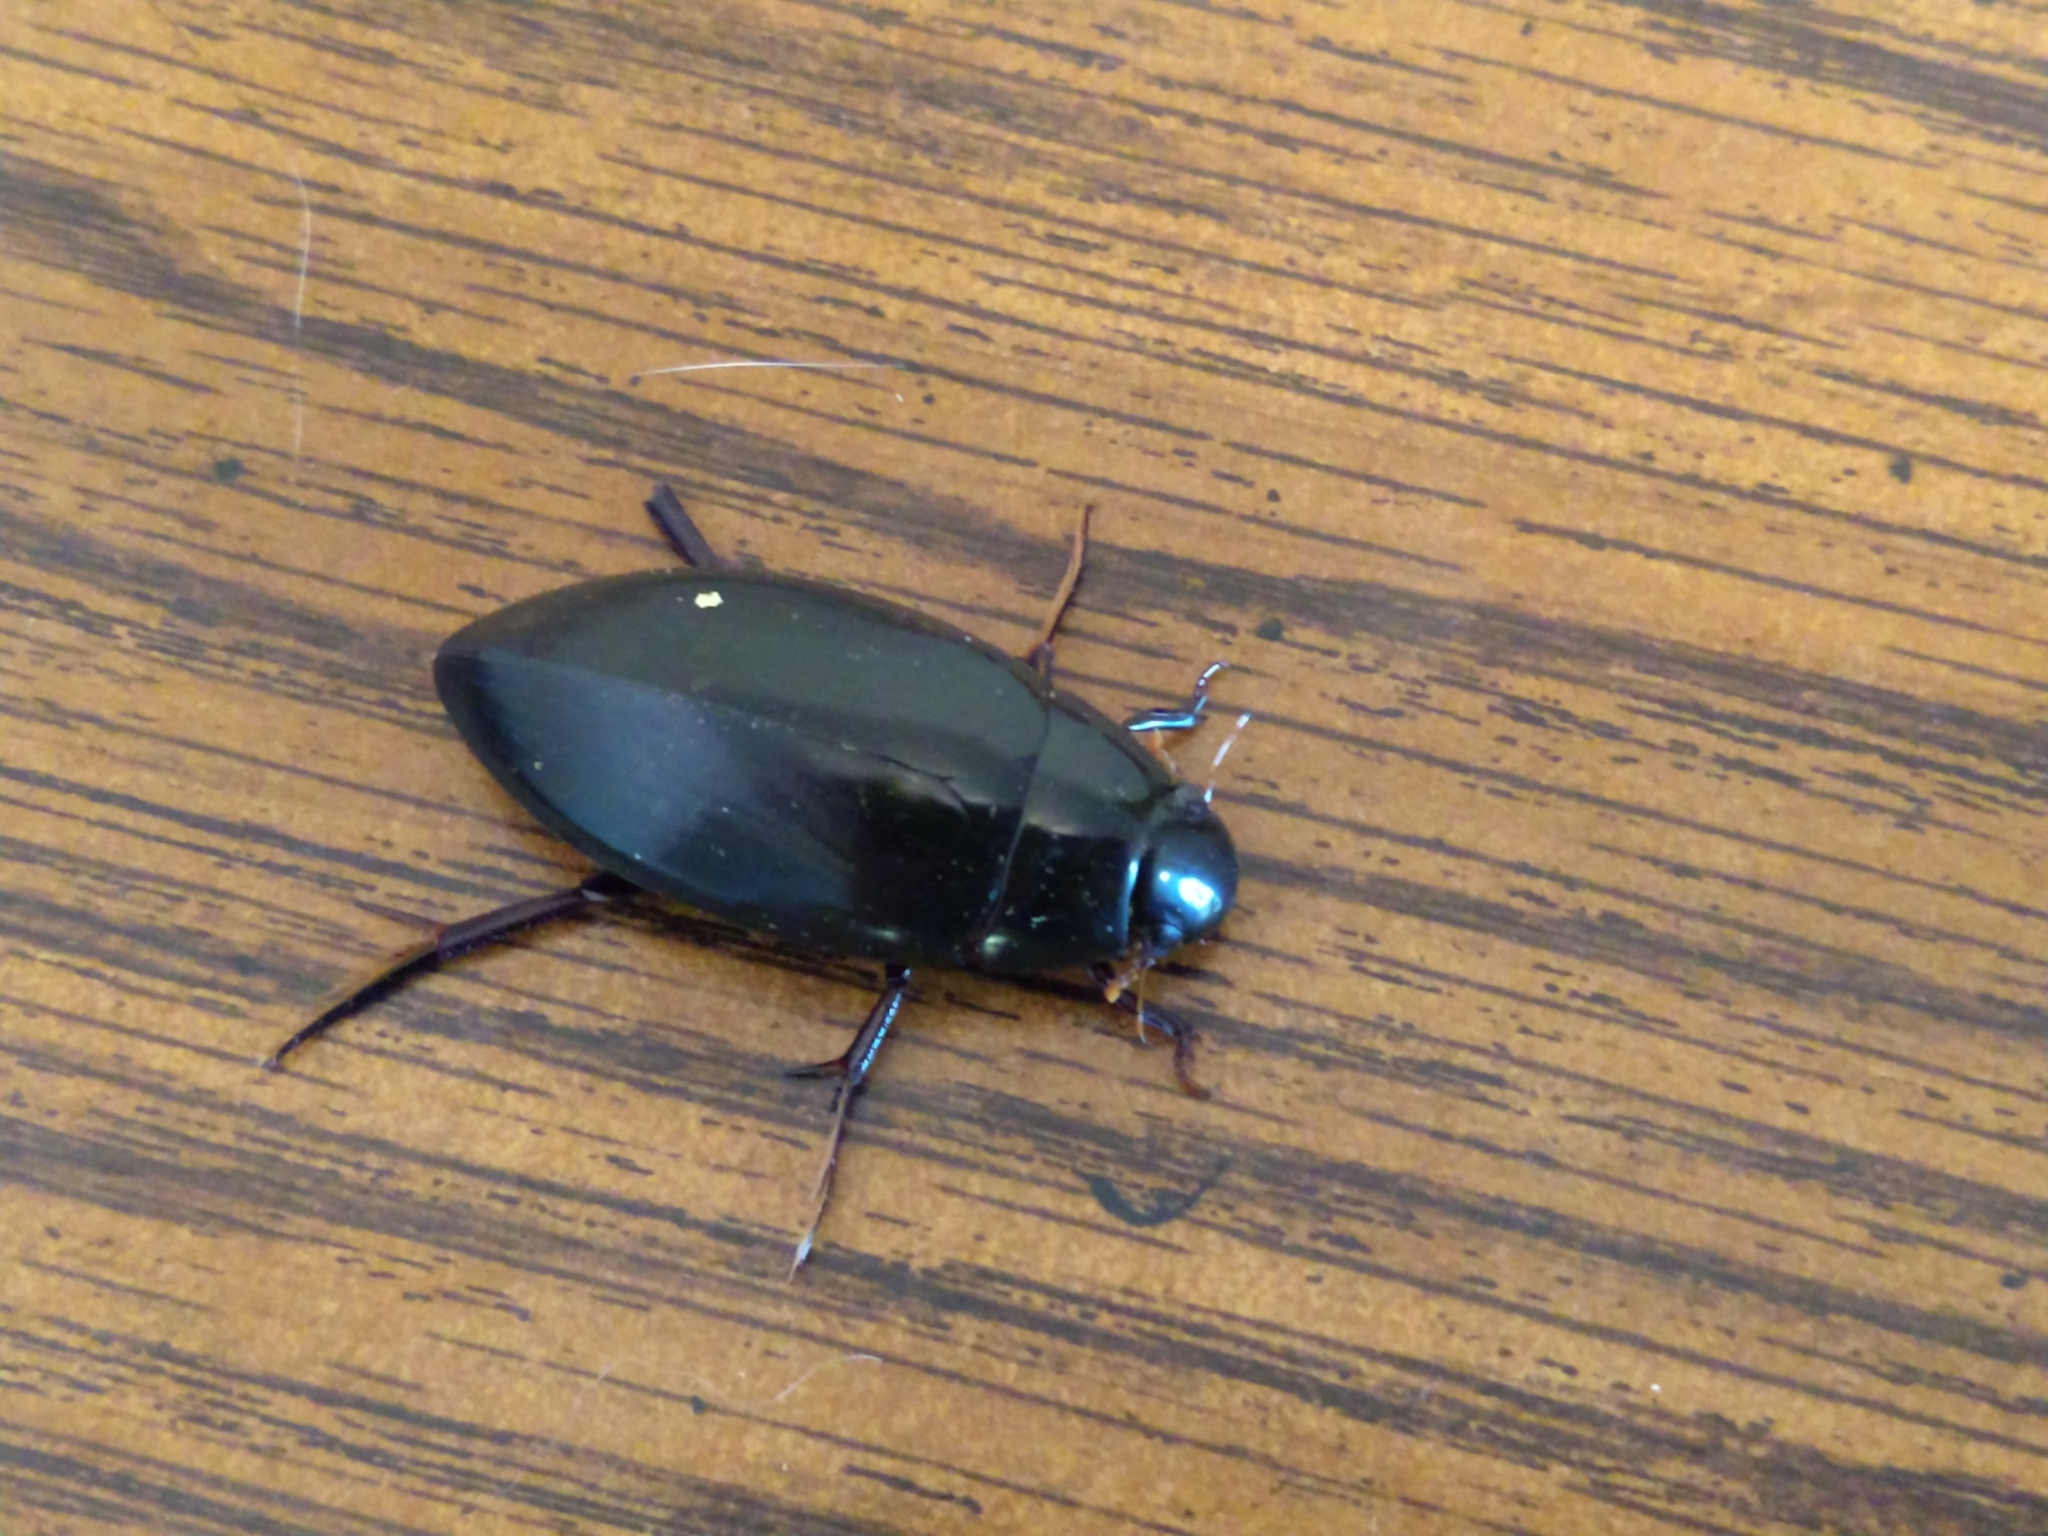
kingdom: Animalia
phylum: Arthropoda
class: Insecta
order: Coleoptera
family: Hydrophilidae
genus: Hydrophilus
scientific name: Hydrophilus triangularis
